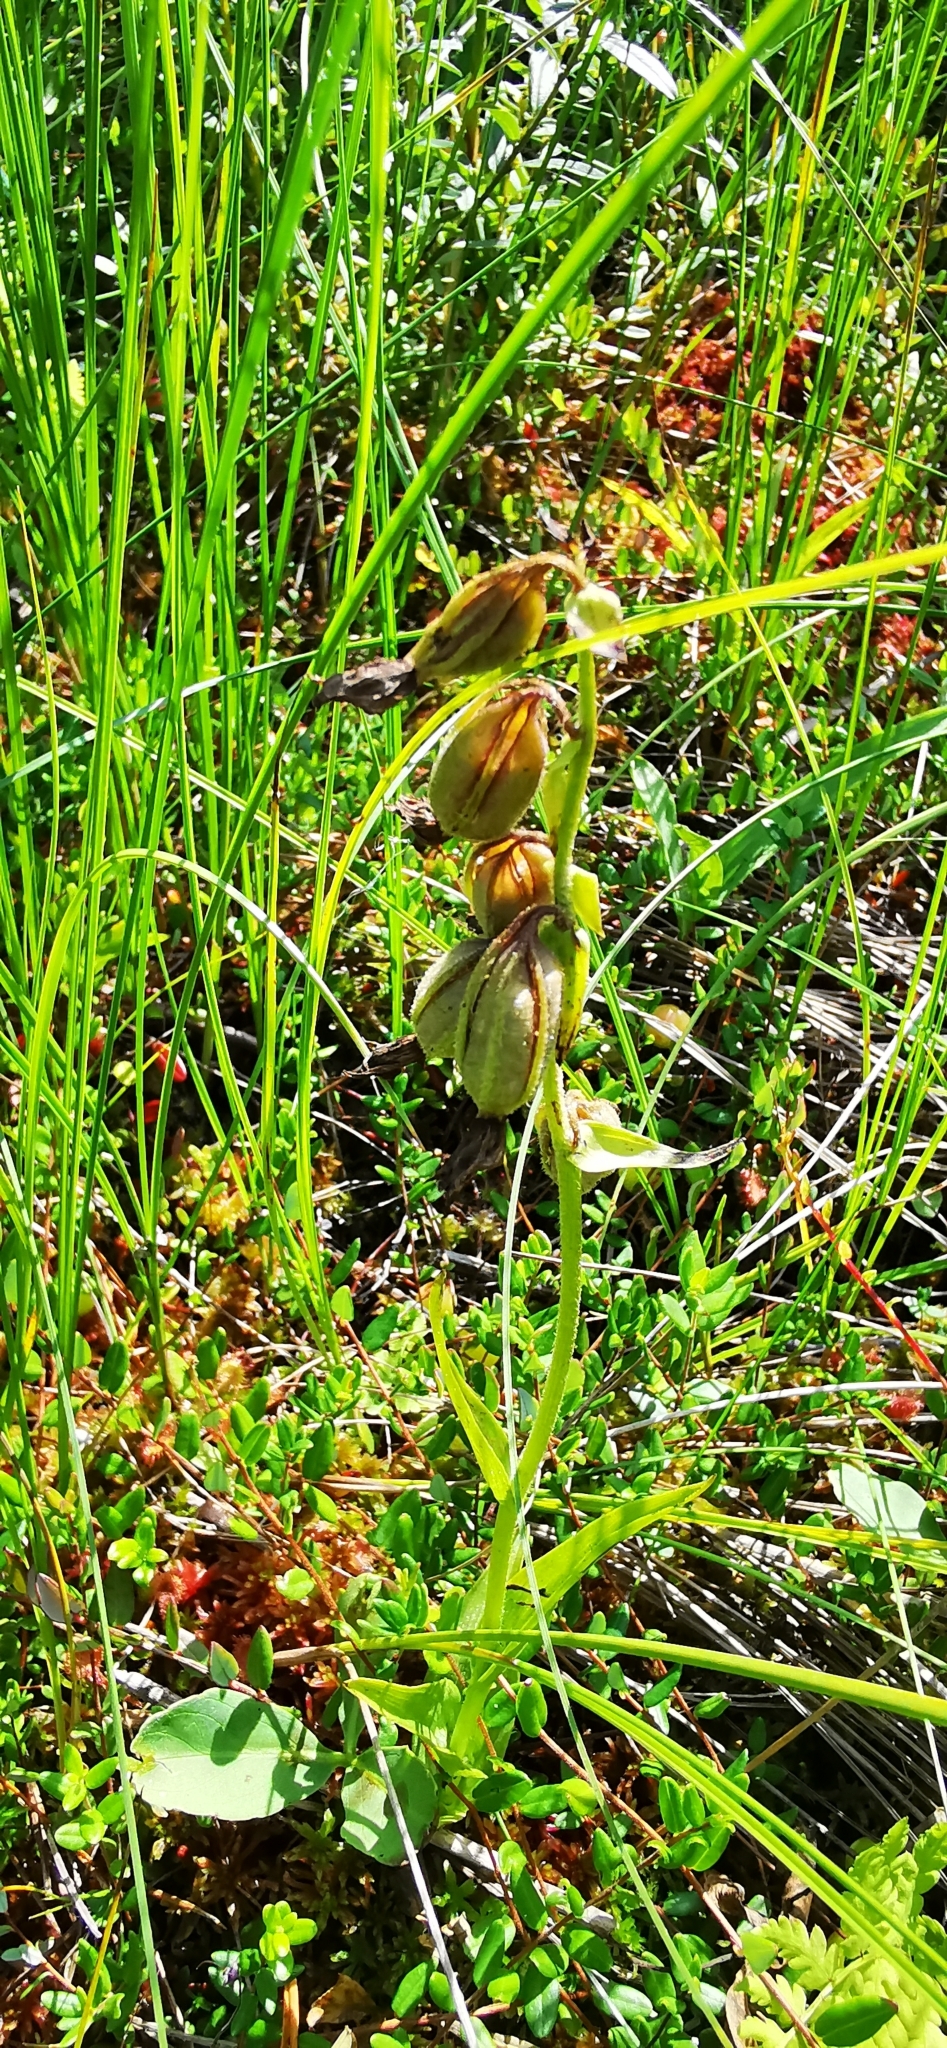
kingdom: Plantae
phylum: Tracheophyta
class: Liliopsida
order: Asparagales
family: Orchidaceae
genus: Epipactis
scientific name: Epipactis palustris
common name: Marsh helleborine
